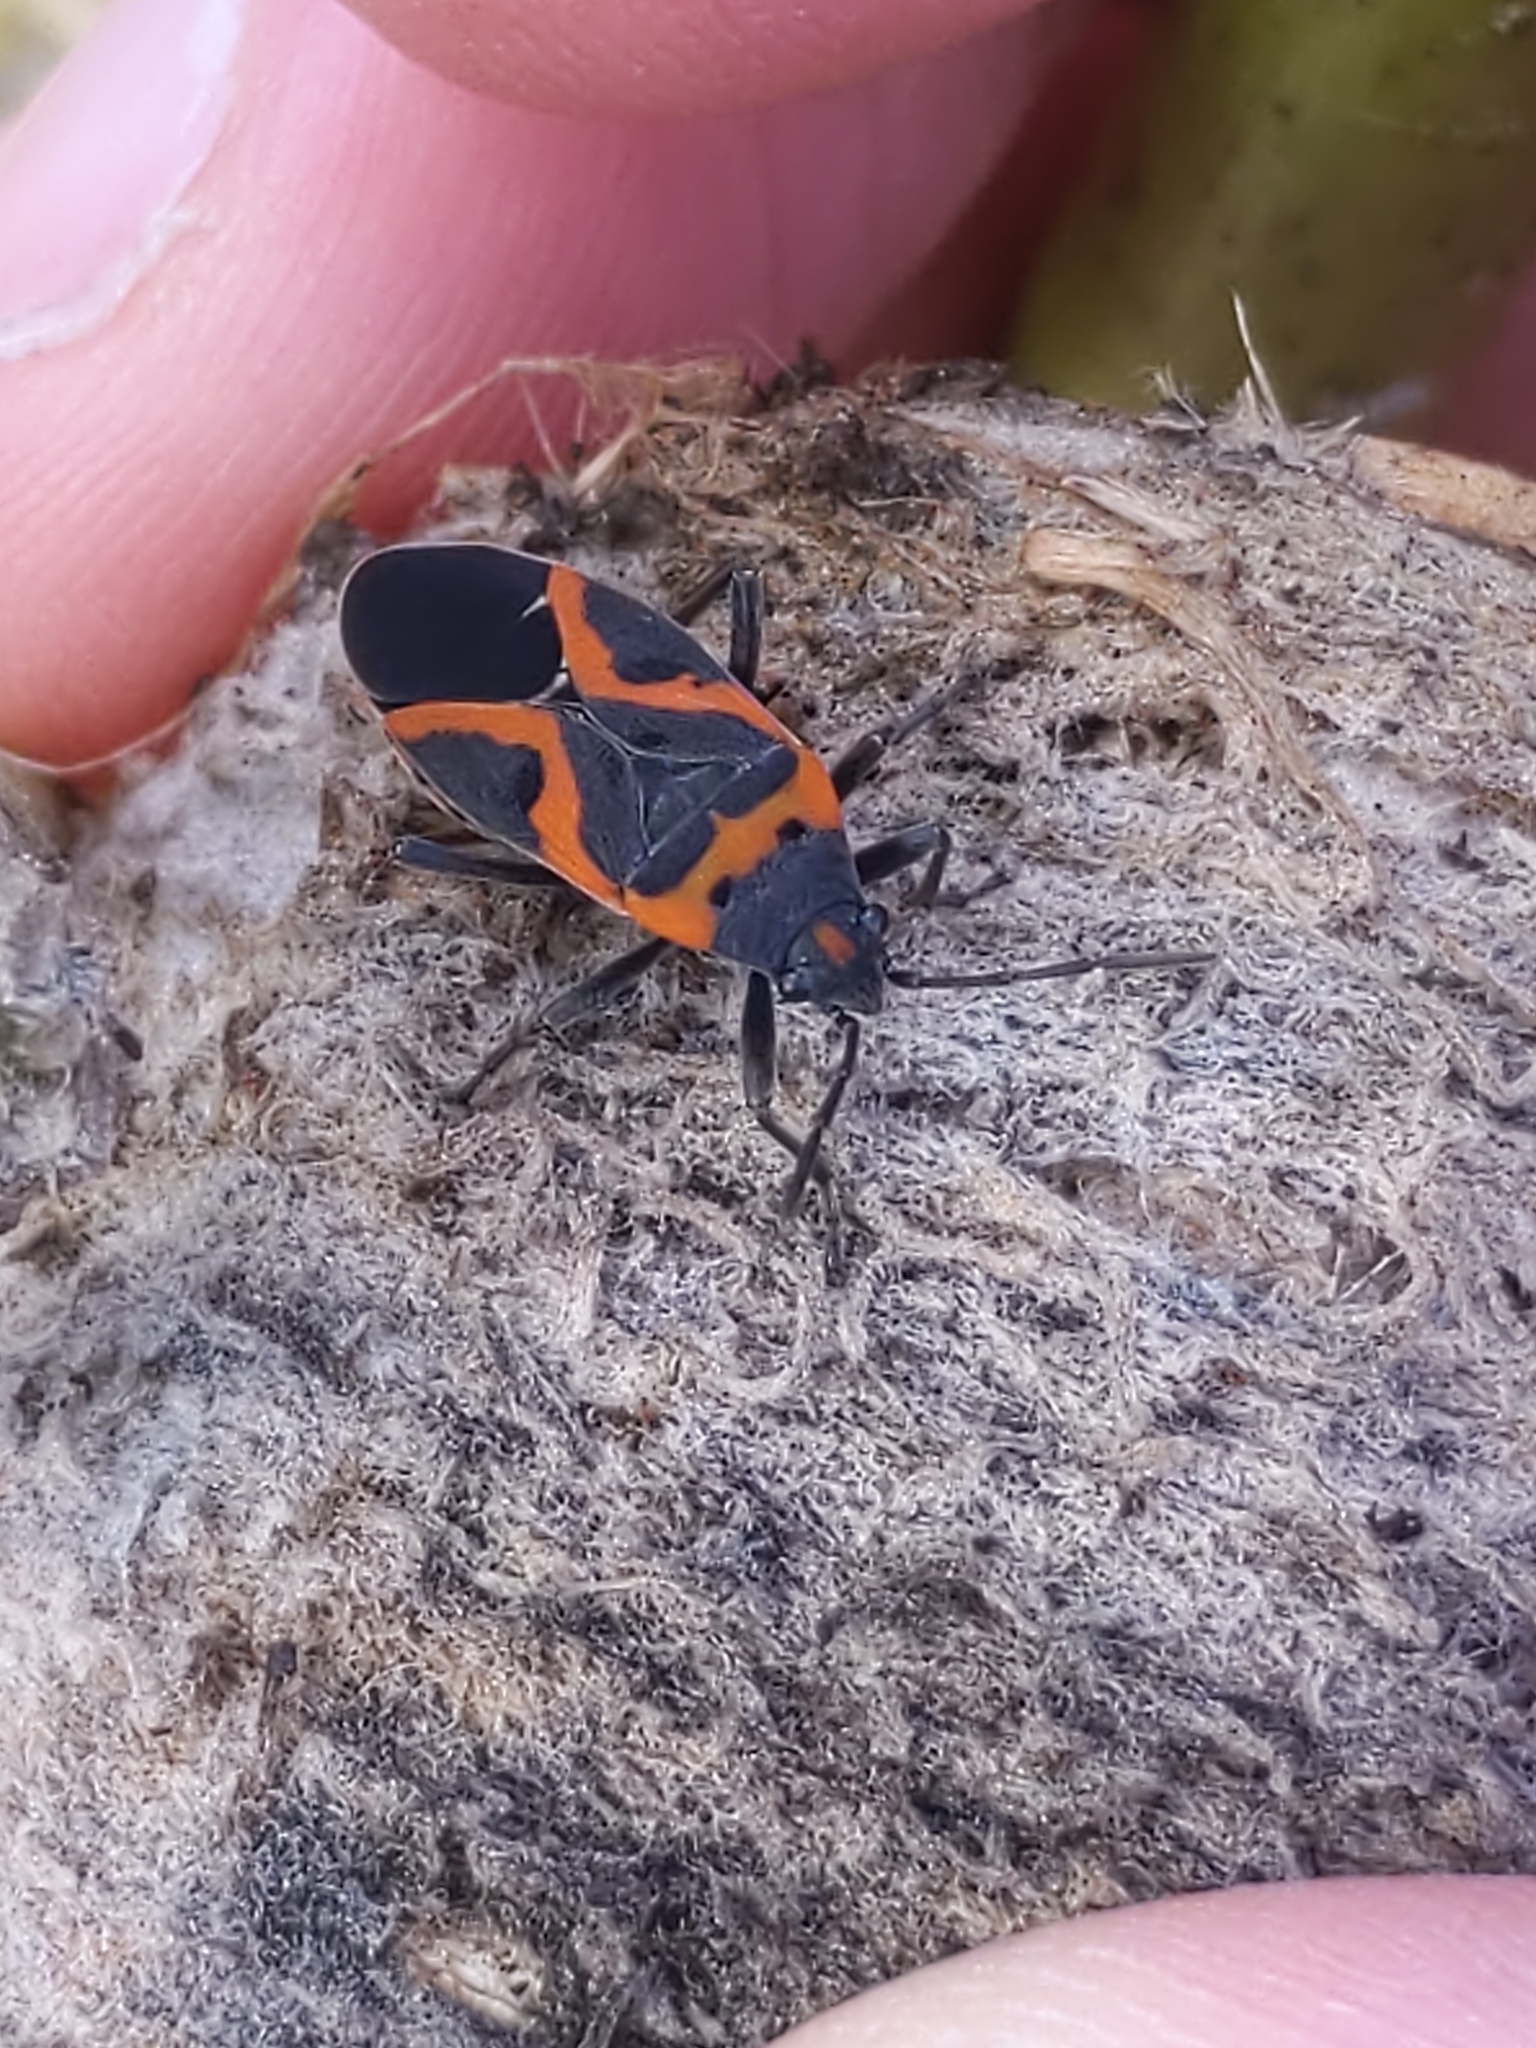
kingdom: Animalia
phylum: Arthropoda
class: Insecta
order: Hemiptera
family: Lygaeidae
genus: Lygaeus
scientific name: Lygaeus kalmii
